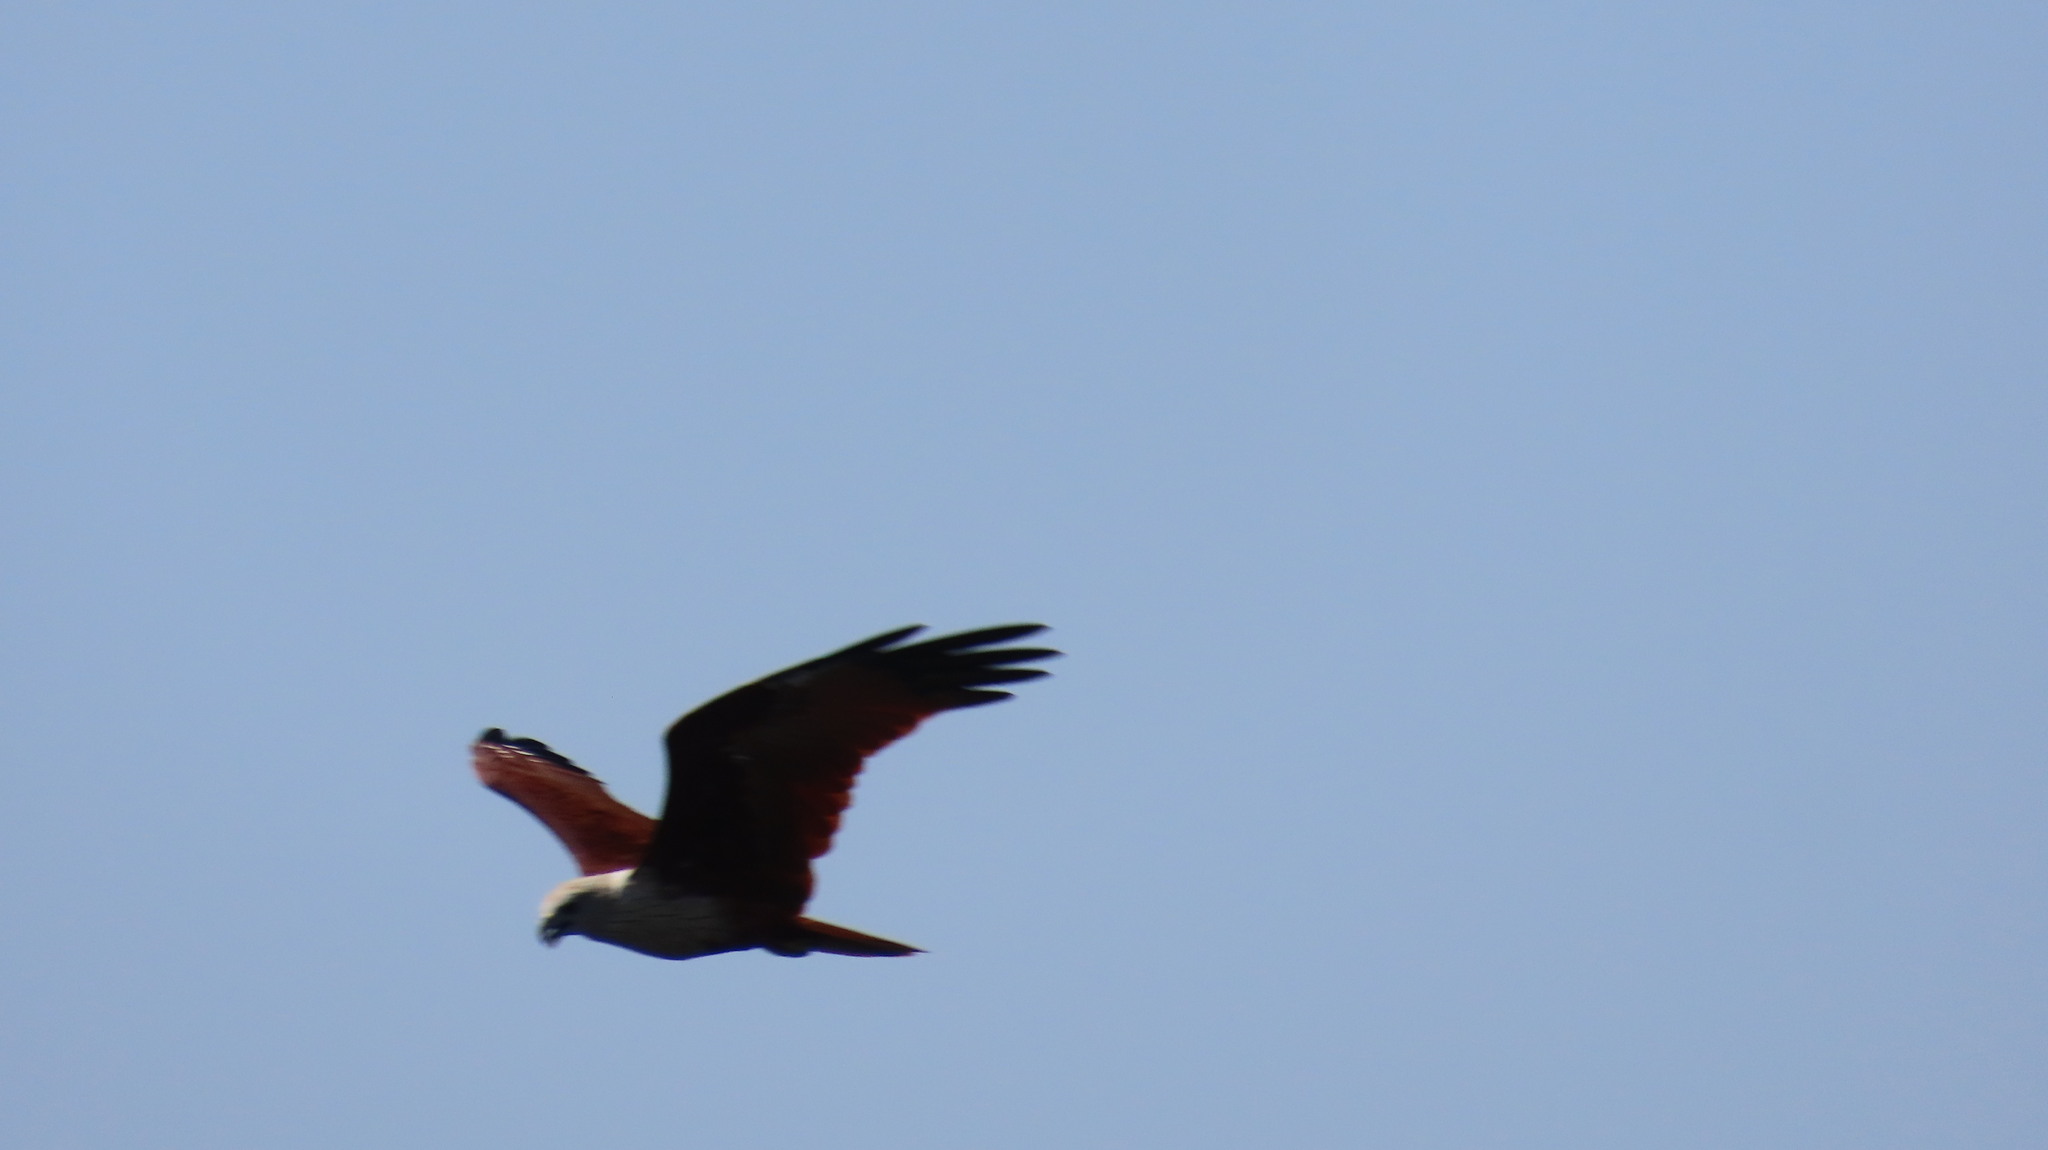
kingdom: Animalia
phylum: Chordata
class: Aves
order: Accipitriformes
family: Accipitridae
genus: Haliastur
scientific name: Haliastur indus
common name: Brahminy kite
